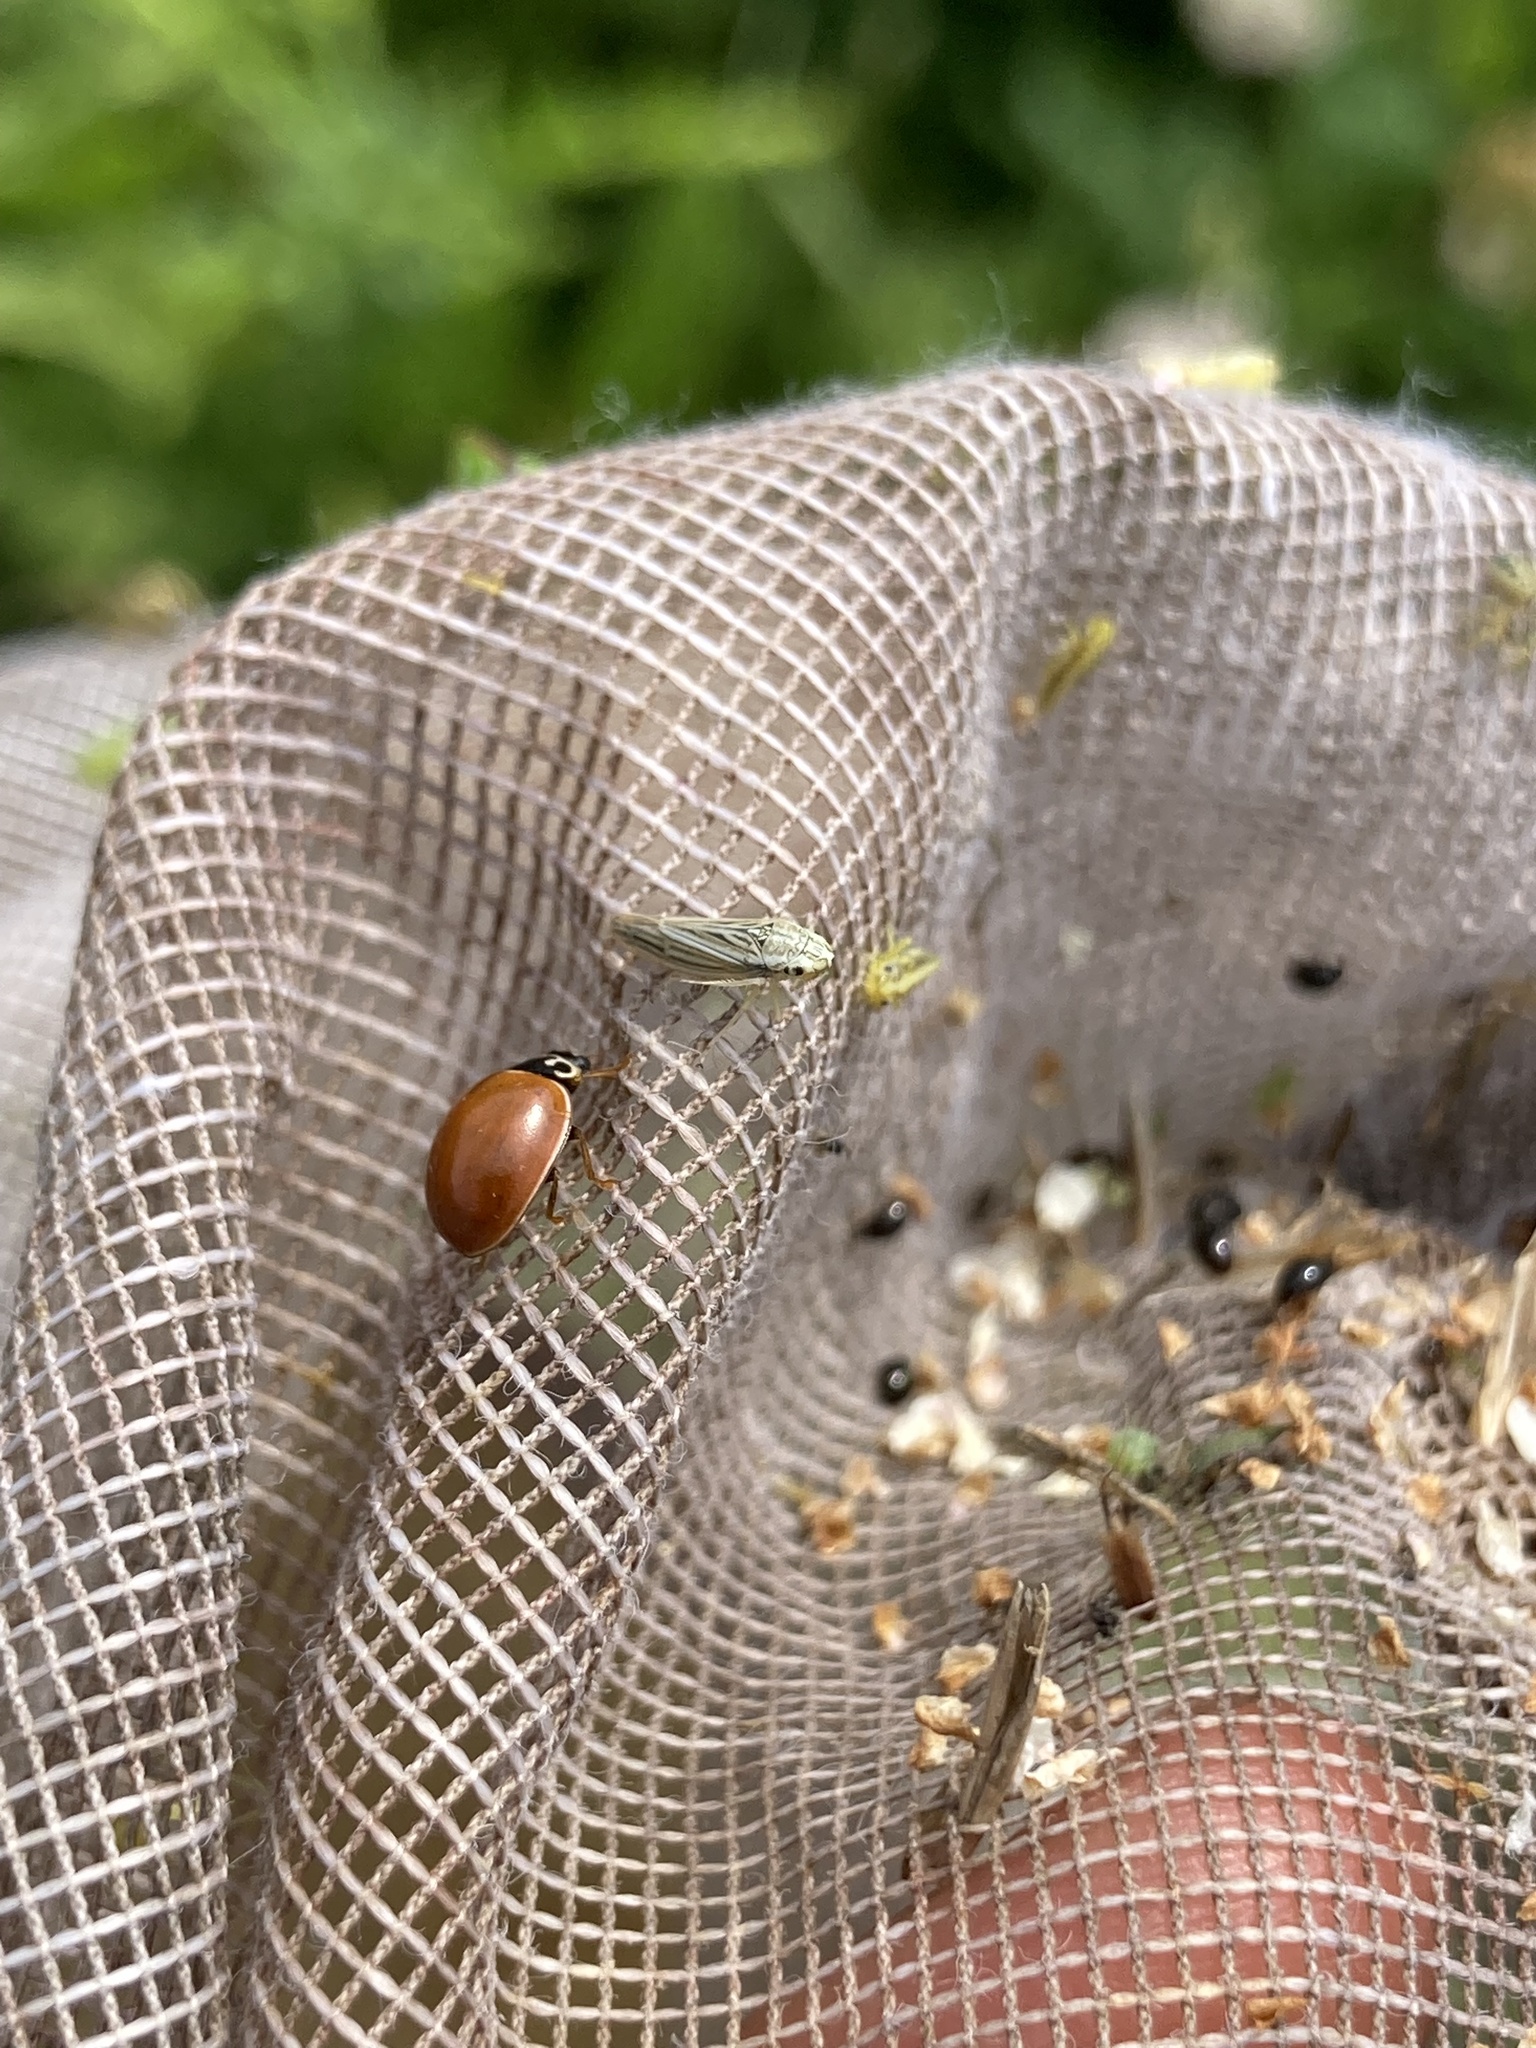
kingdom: Animalia
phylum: Arthropoda
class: Insecta
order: Coleoptera
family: Coccinellidae
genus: Cycloneda
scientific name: Cycloneda munda
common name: Polished lady beetle
